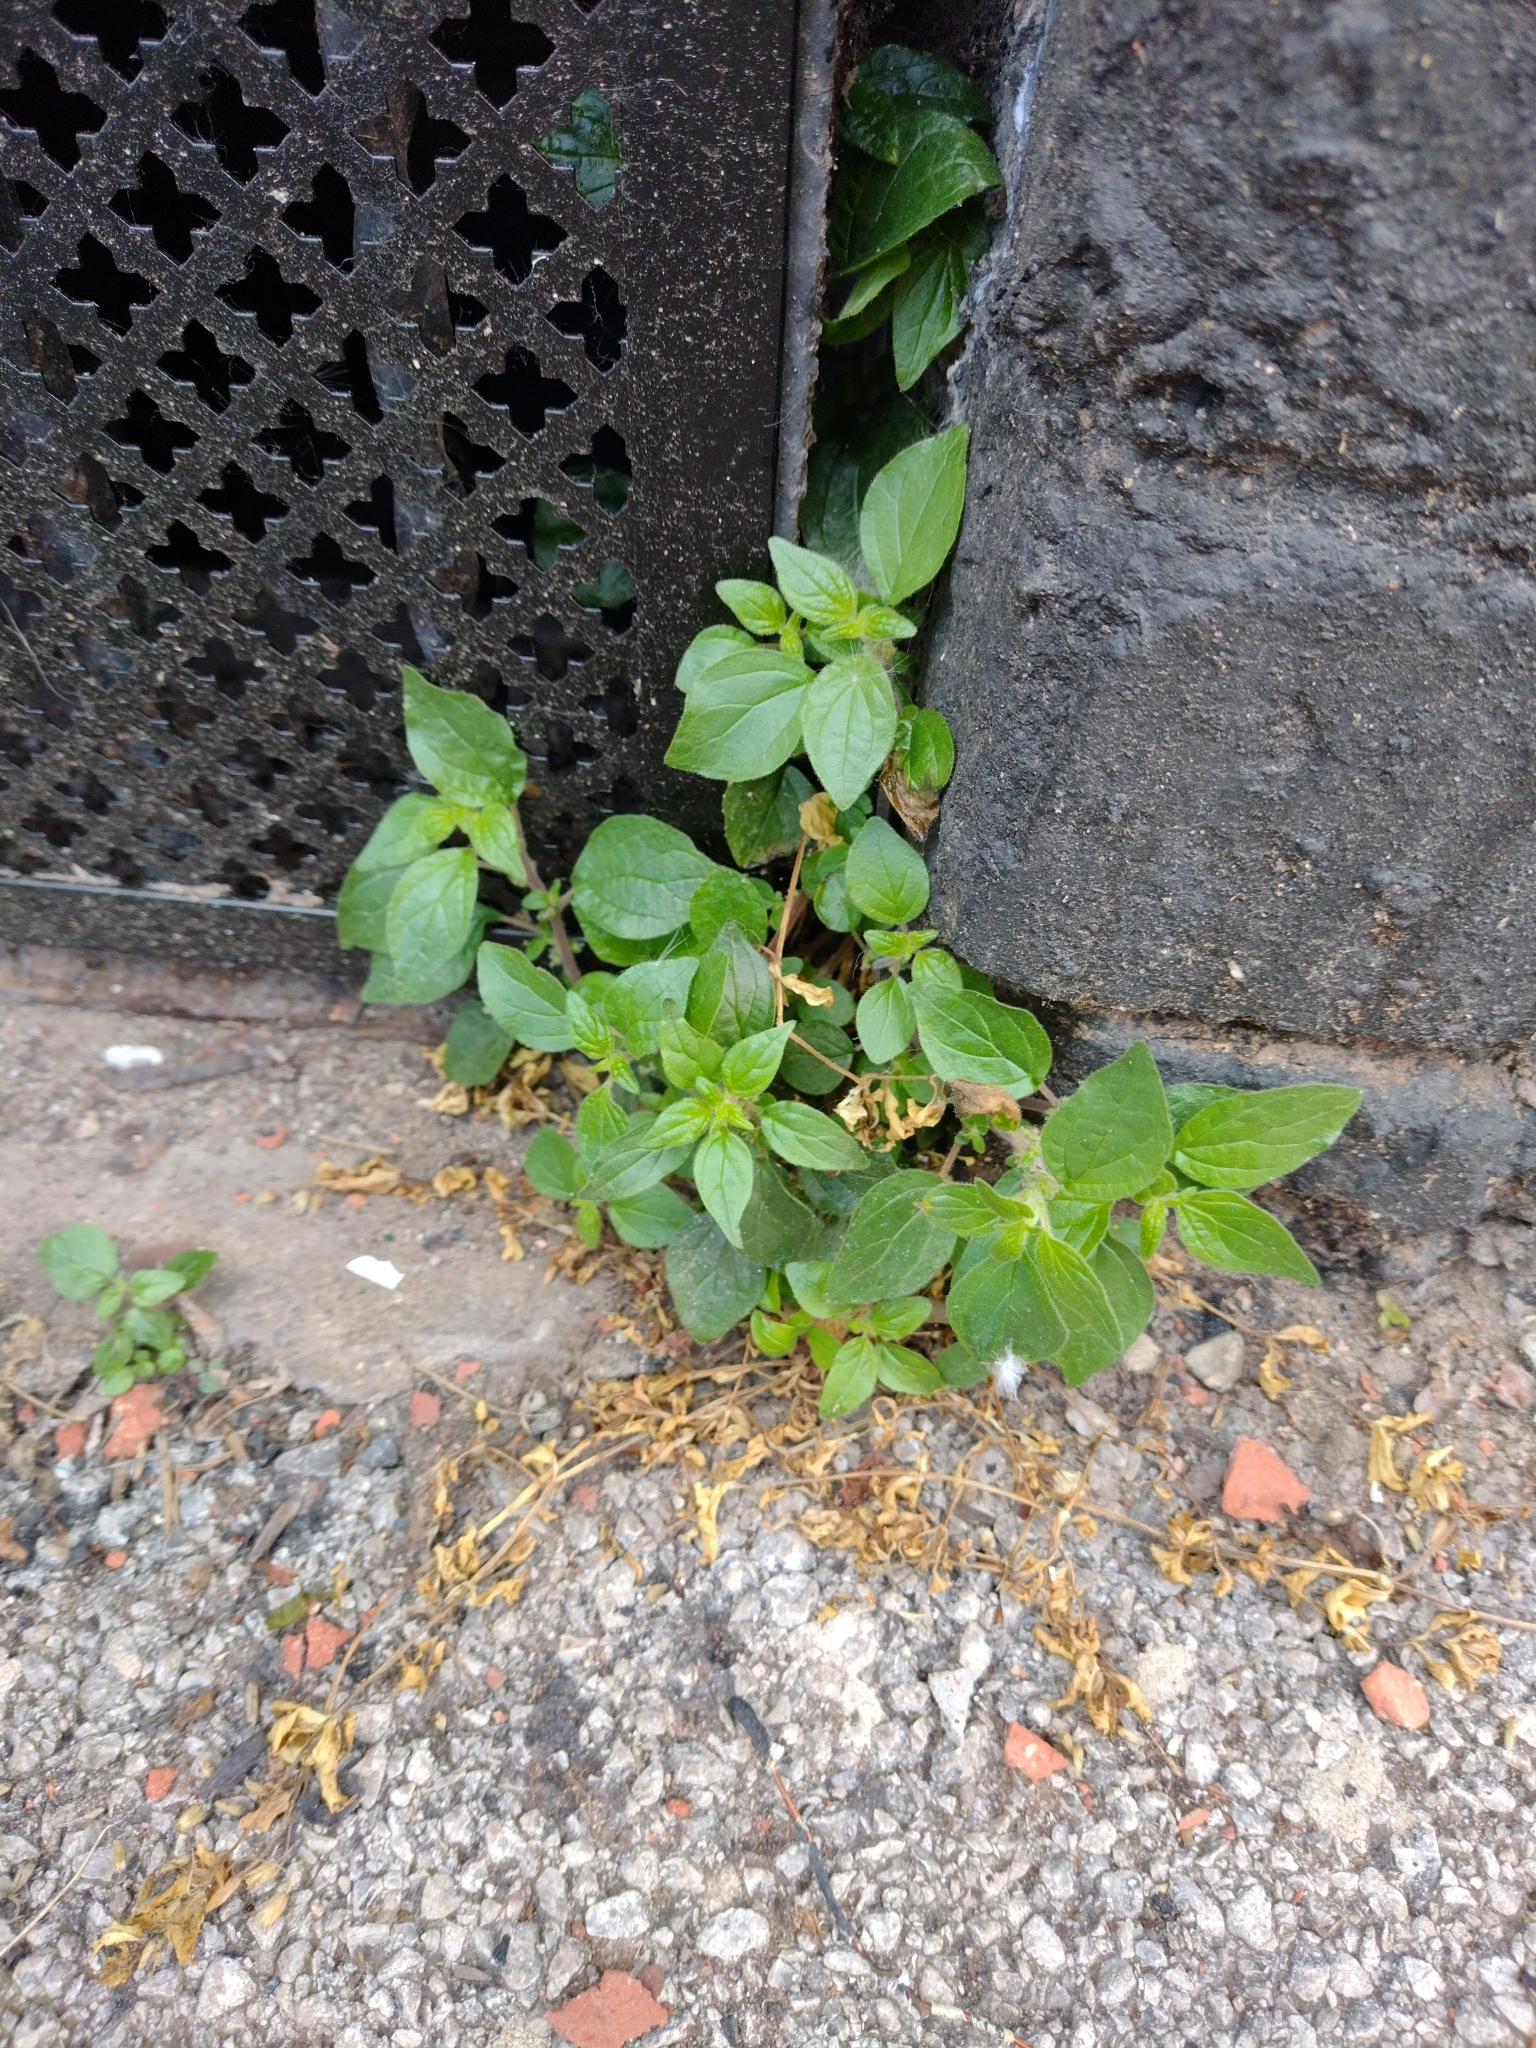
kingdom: Plantae
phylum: Tracheophyta
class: Magnoliopsida
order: Rosales
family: Urticaceae
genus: Parietaria
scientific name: Parietaria judaica
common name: Pellitory-of-the-wall
